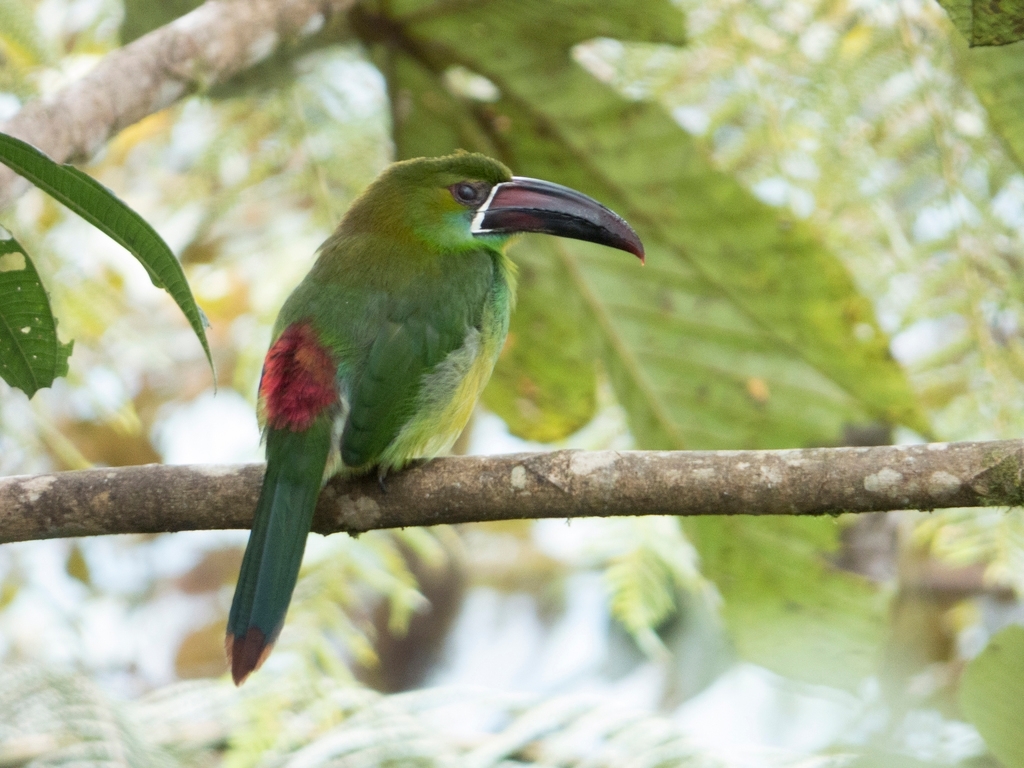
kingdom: Animalia
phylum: Chordata
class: Aves
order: Piciformes
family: Ramphastidae
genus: Aulacorhynchus
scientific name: Aulacorhynchus haematopygus
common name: Crimson-rumped toucanet
